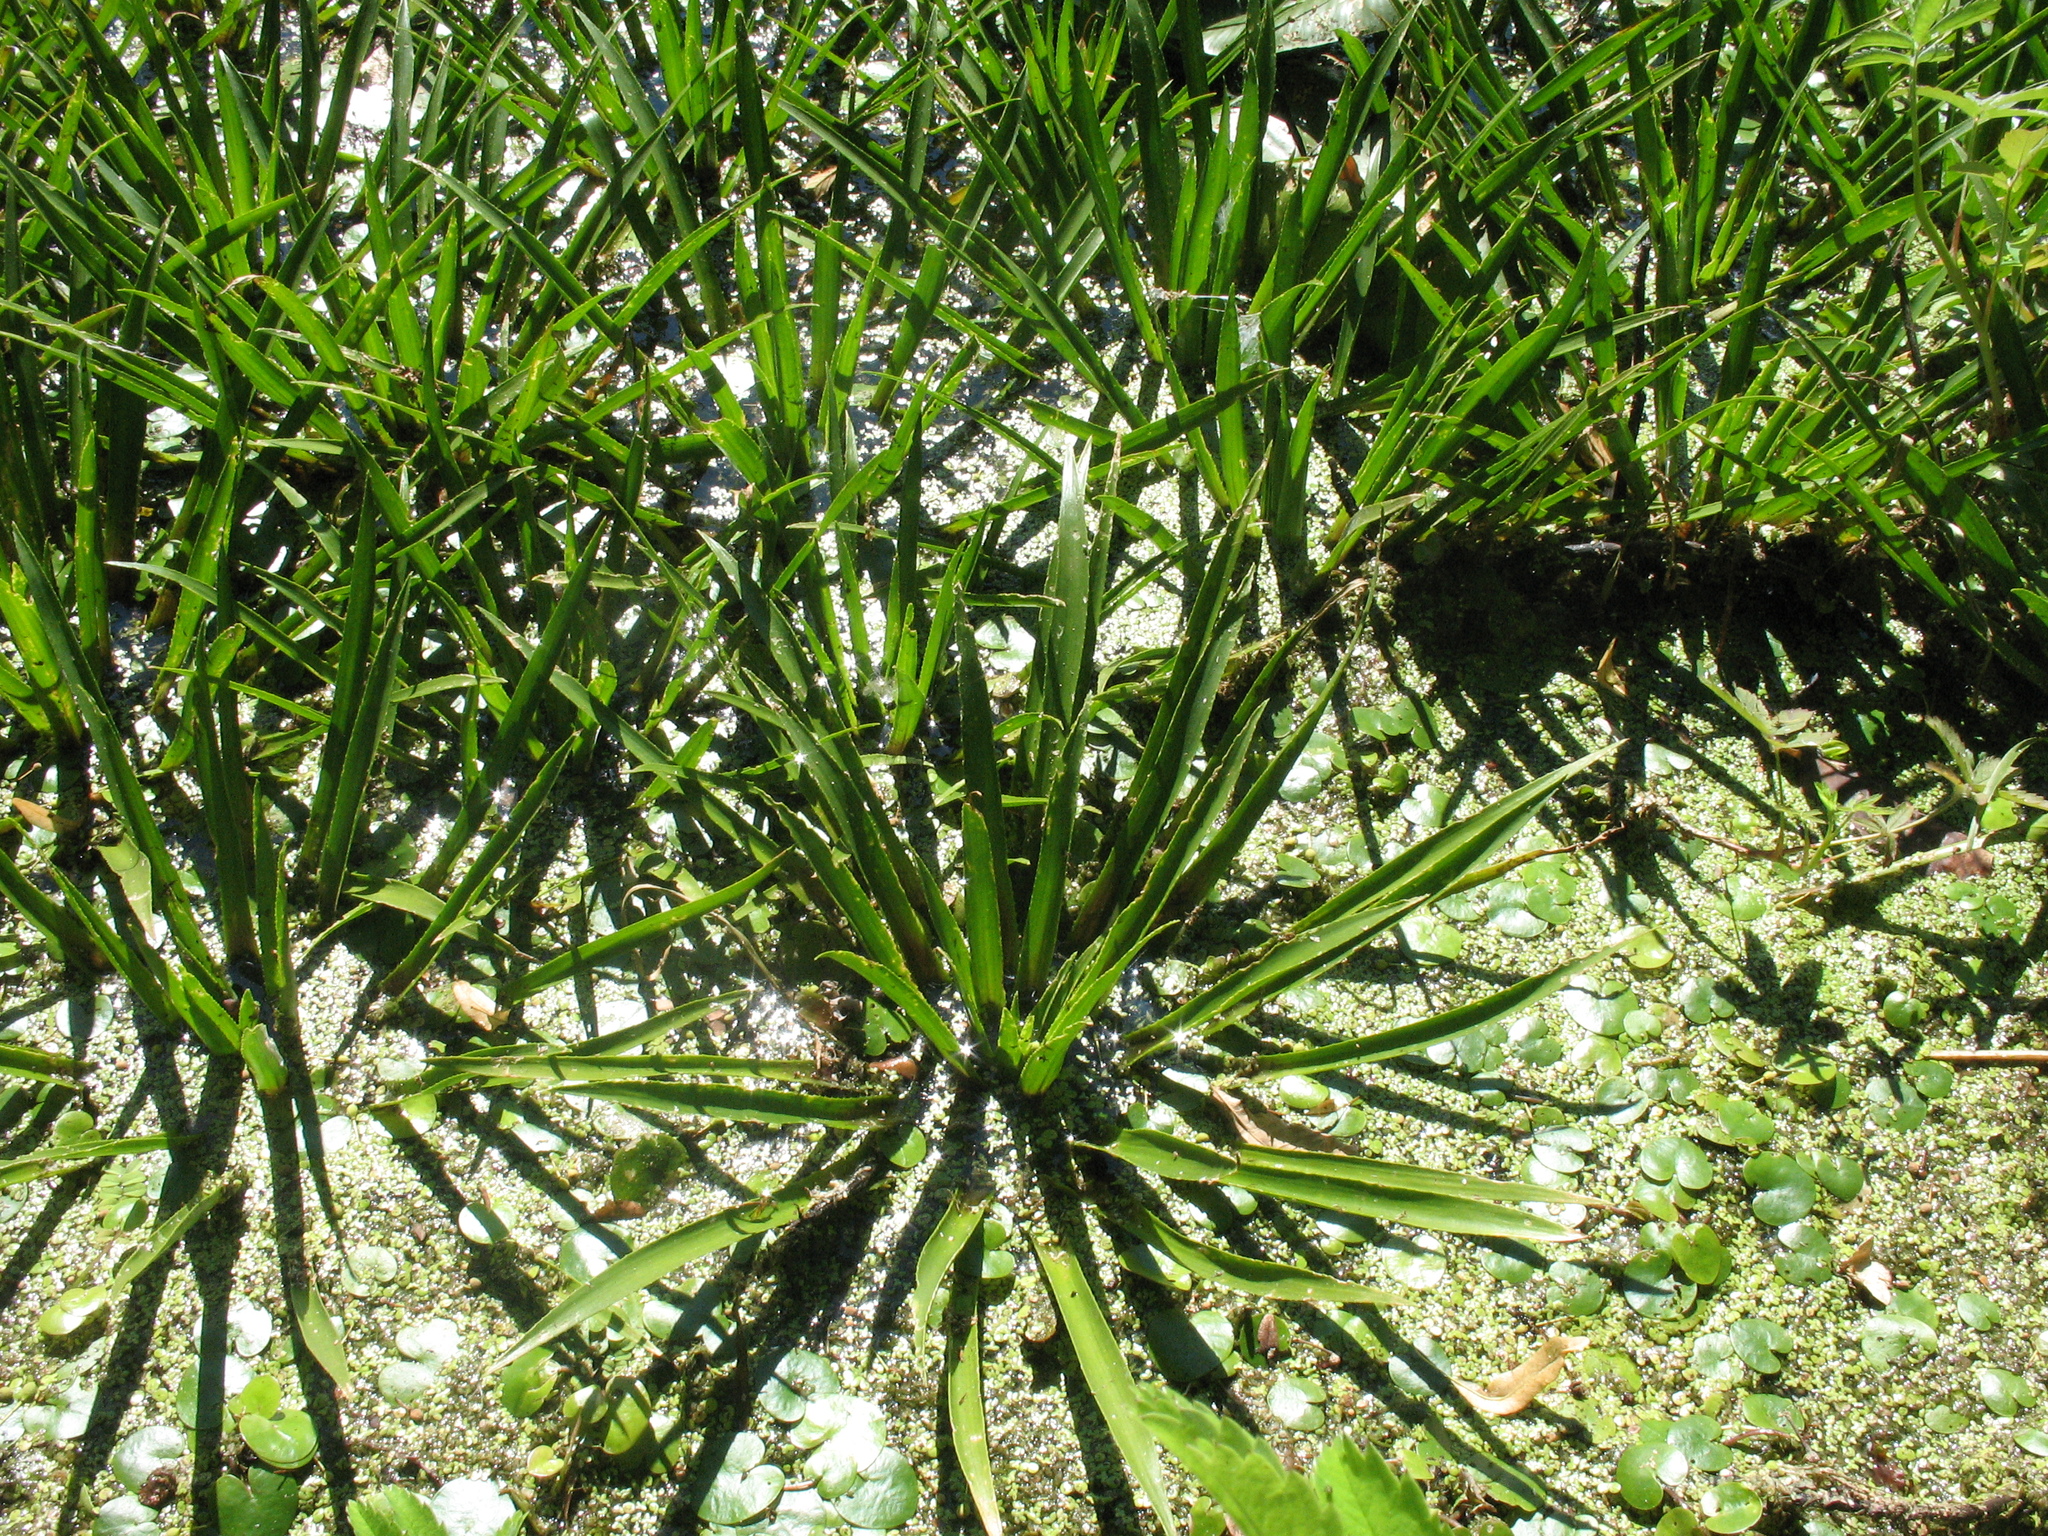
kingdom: Plantae
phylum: Tracheophyta
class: Liliopsida
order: Alismatales
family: Hydrocharitaceae
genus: Stratiotes
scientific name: Stratiotes aloides
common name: Water-soldier
